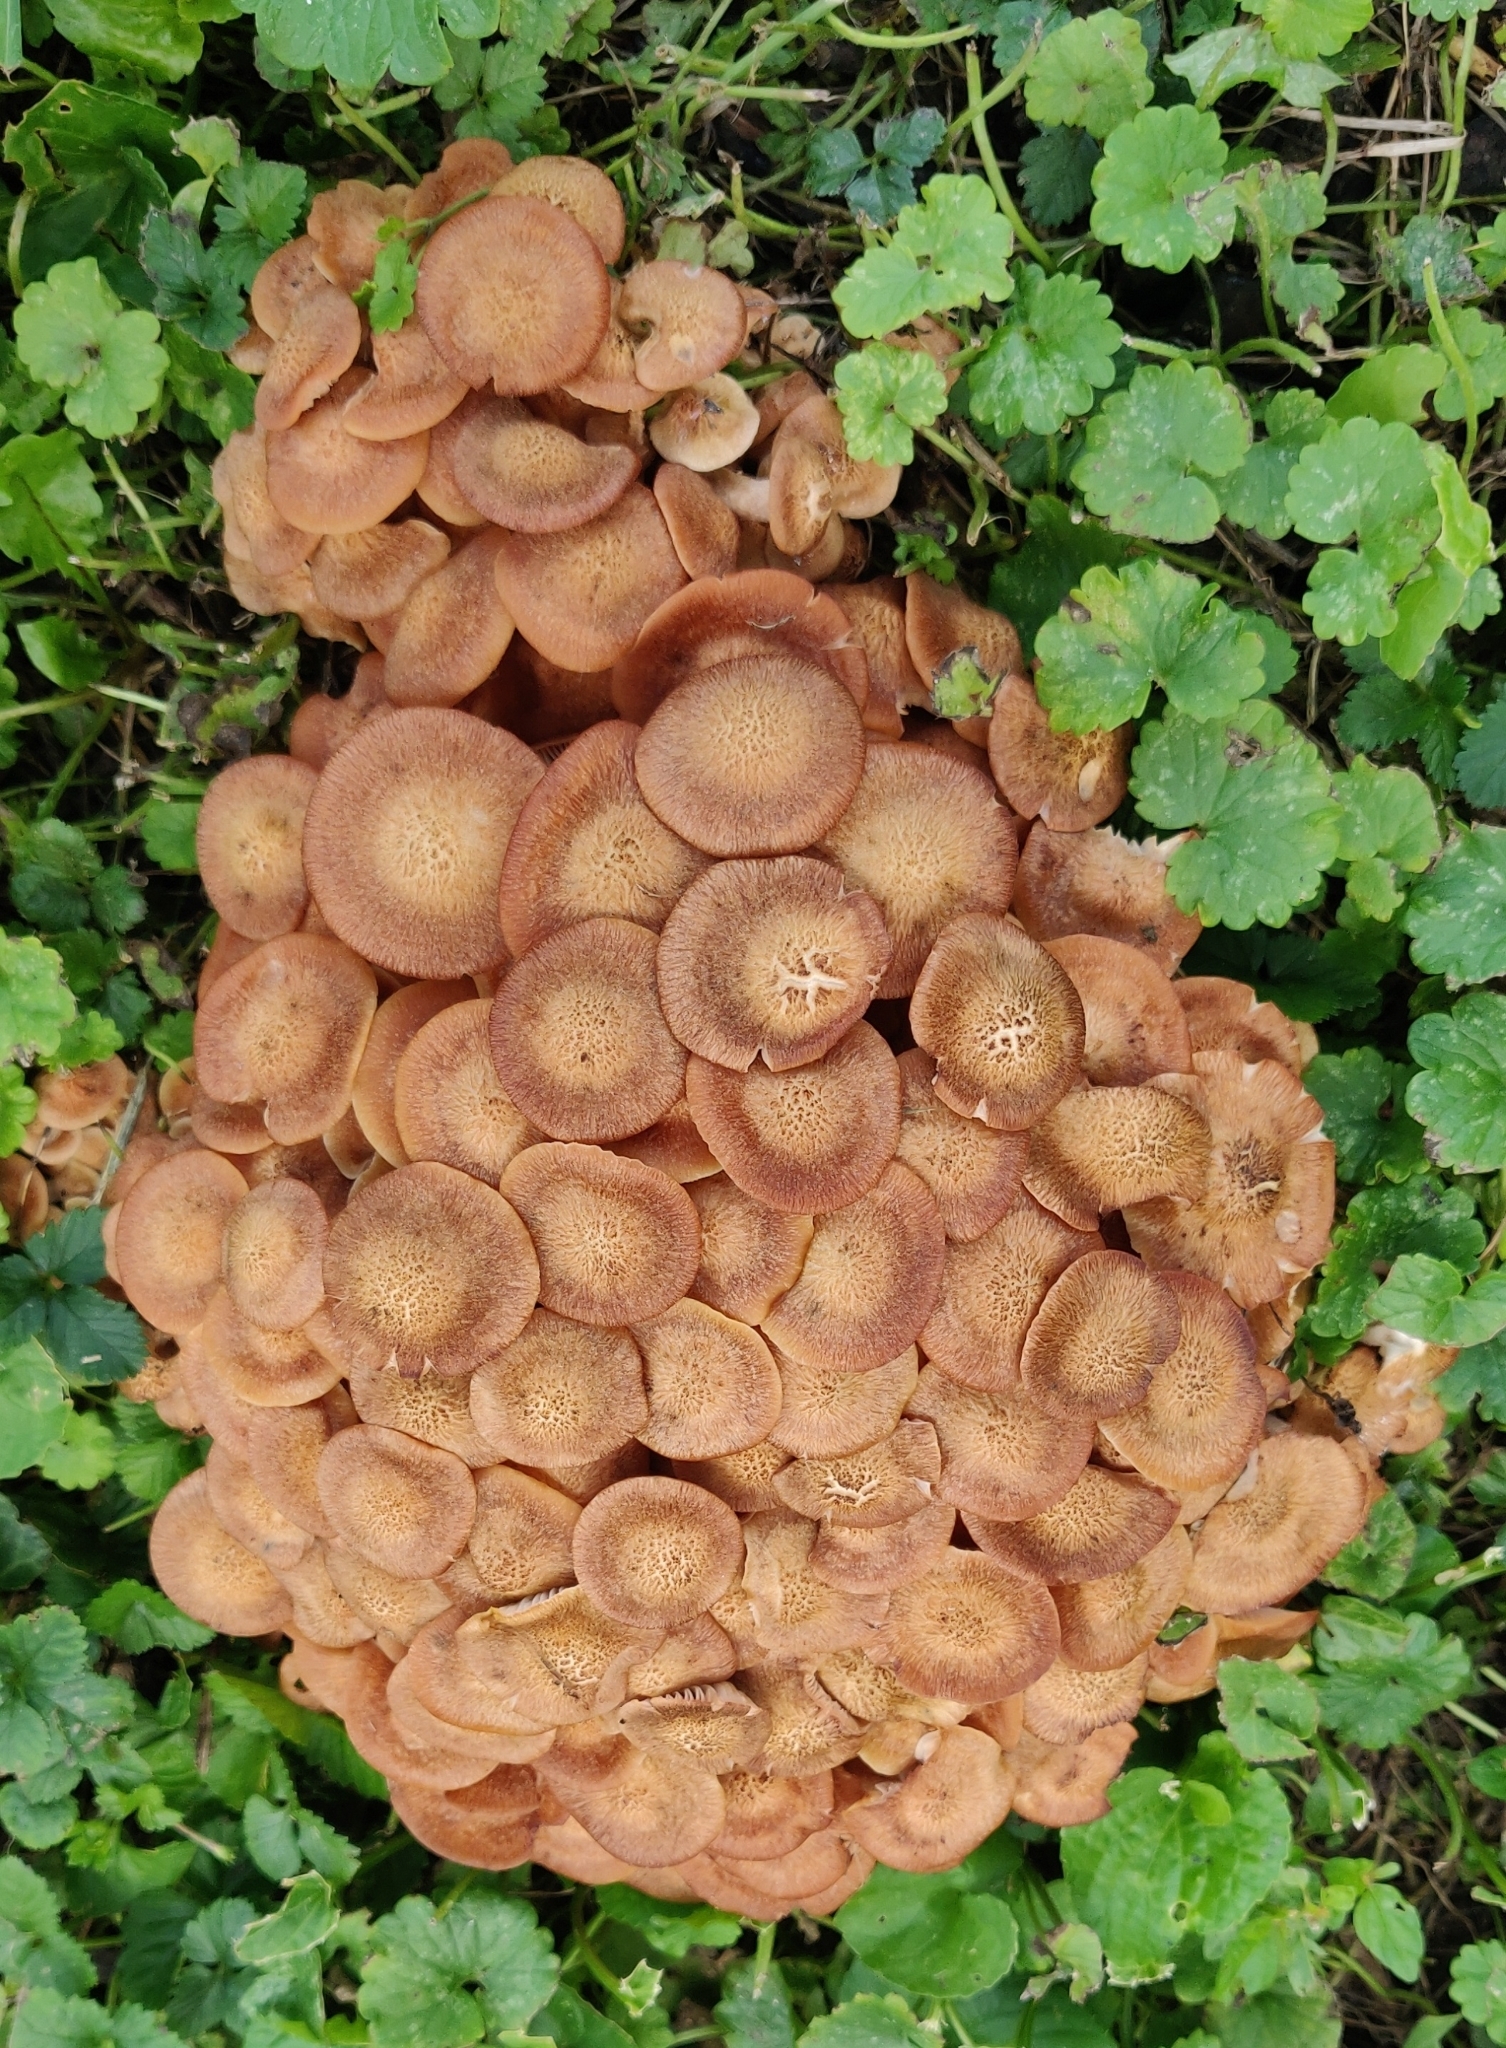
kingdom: Fungi
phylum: Basidiomycota
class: Agaricomycetes
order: Agaricales
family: Physalacriaceae
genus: Desarmillaria
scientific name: Desarmillaria caespitosa
